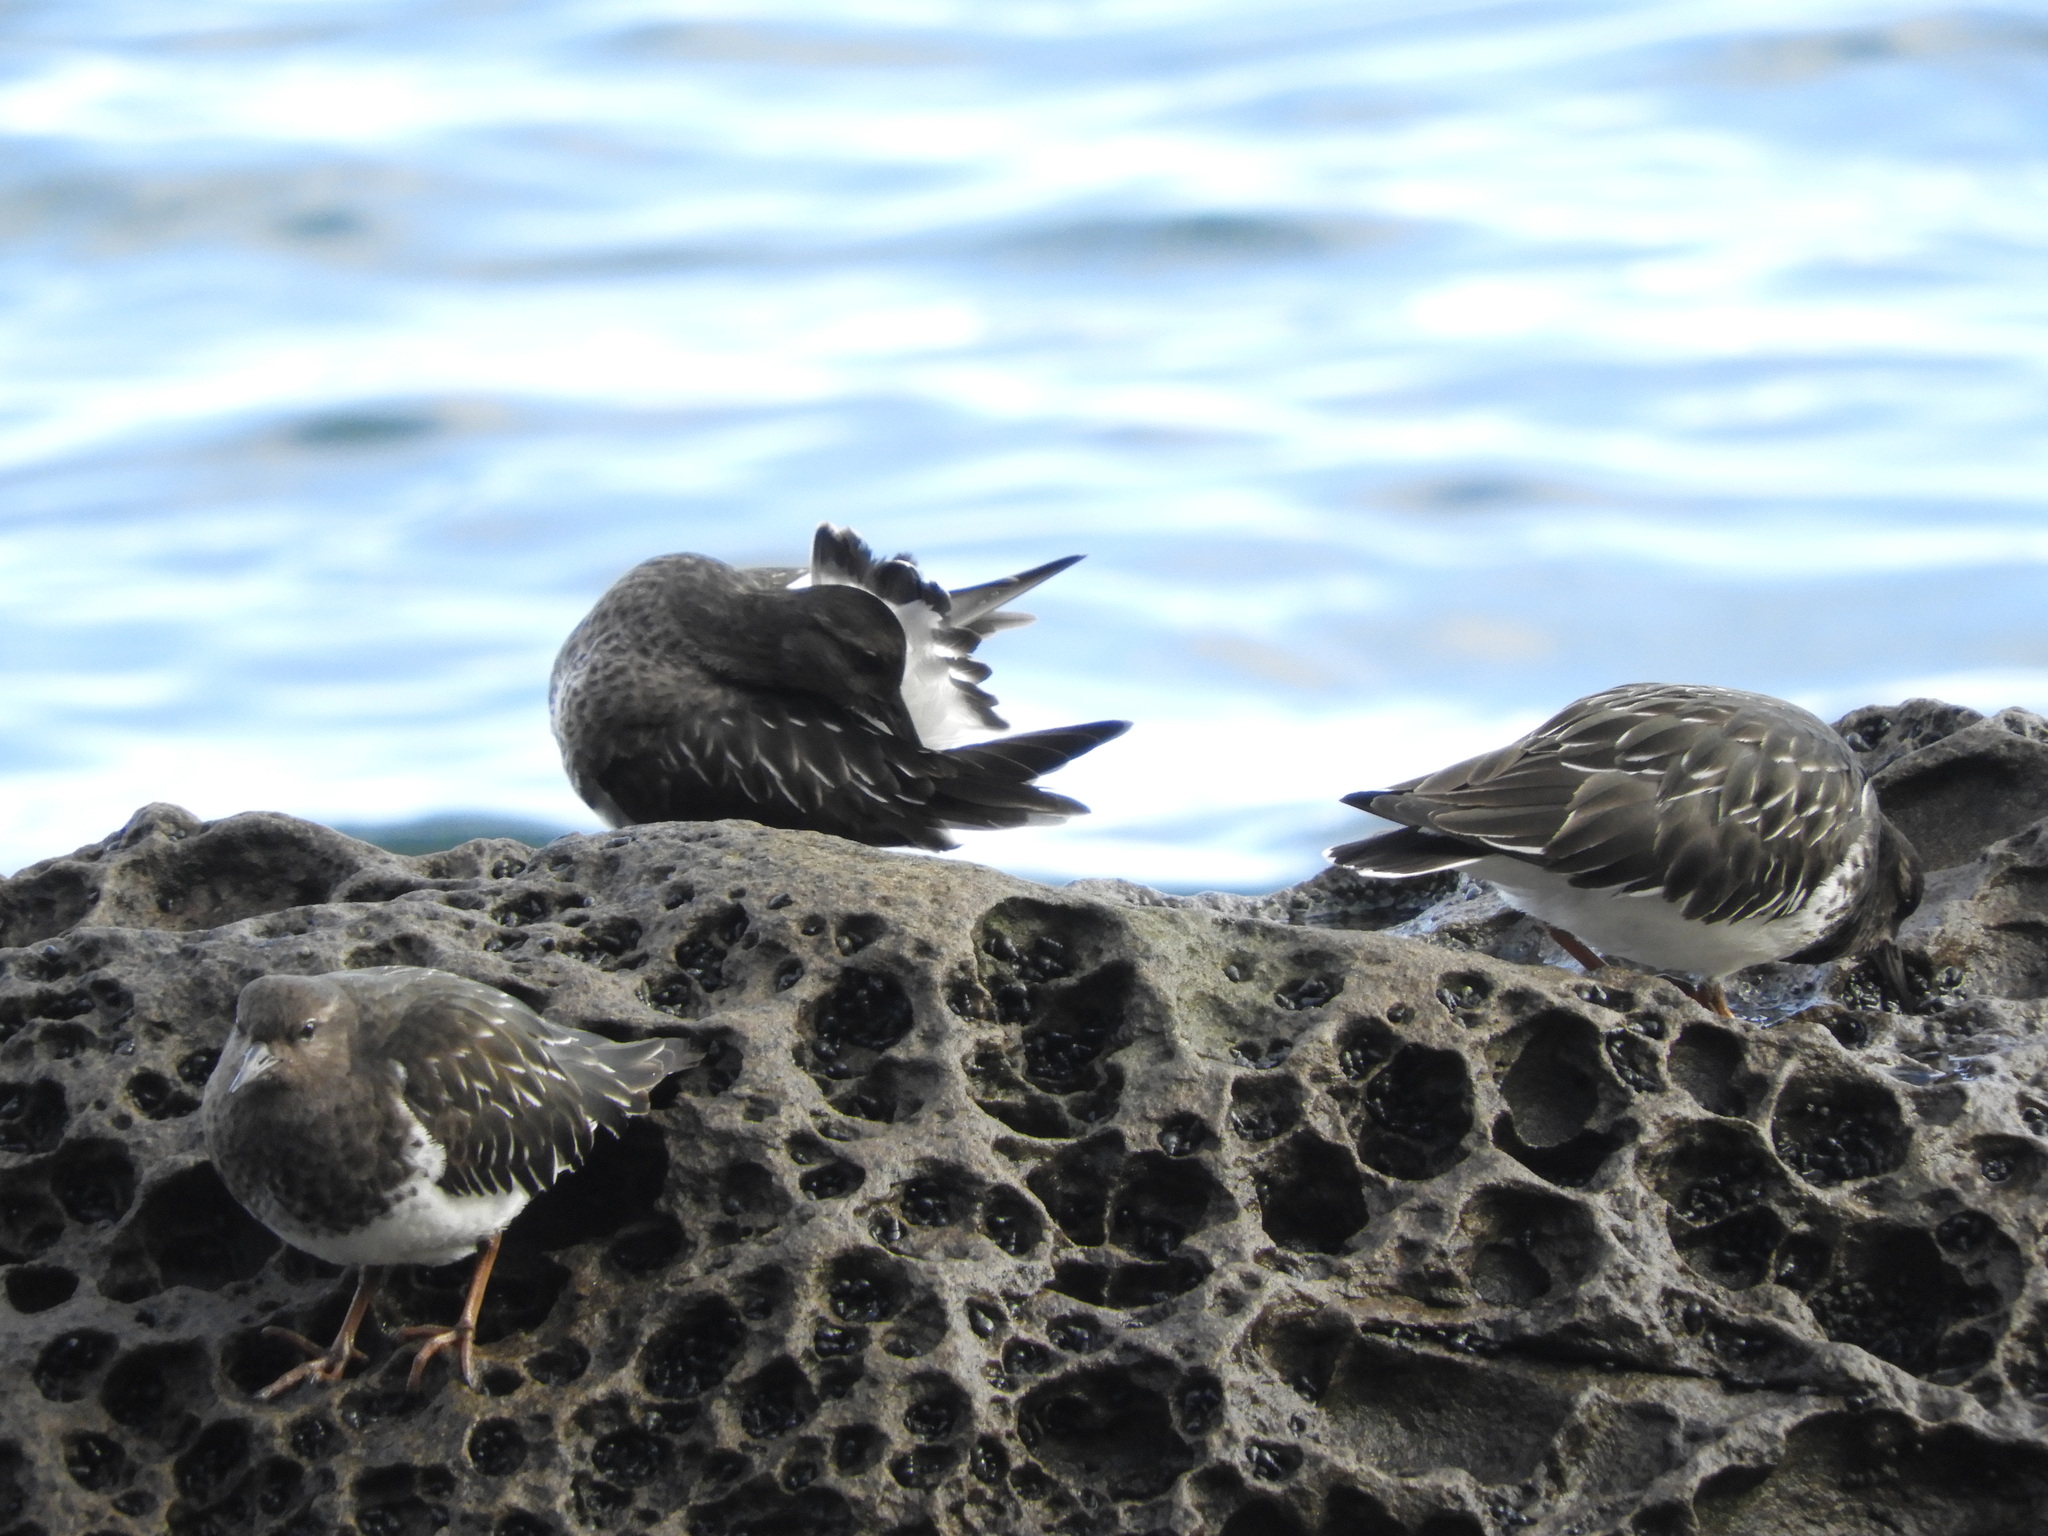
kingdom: Animalia
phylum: Chordata
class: Aves
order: Charadriiformes
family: Scolopacidae
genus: Arenaria
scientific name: Arenaria melanocephala
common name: Black turnstone
